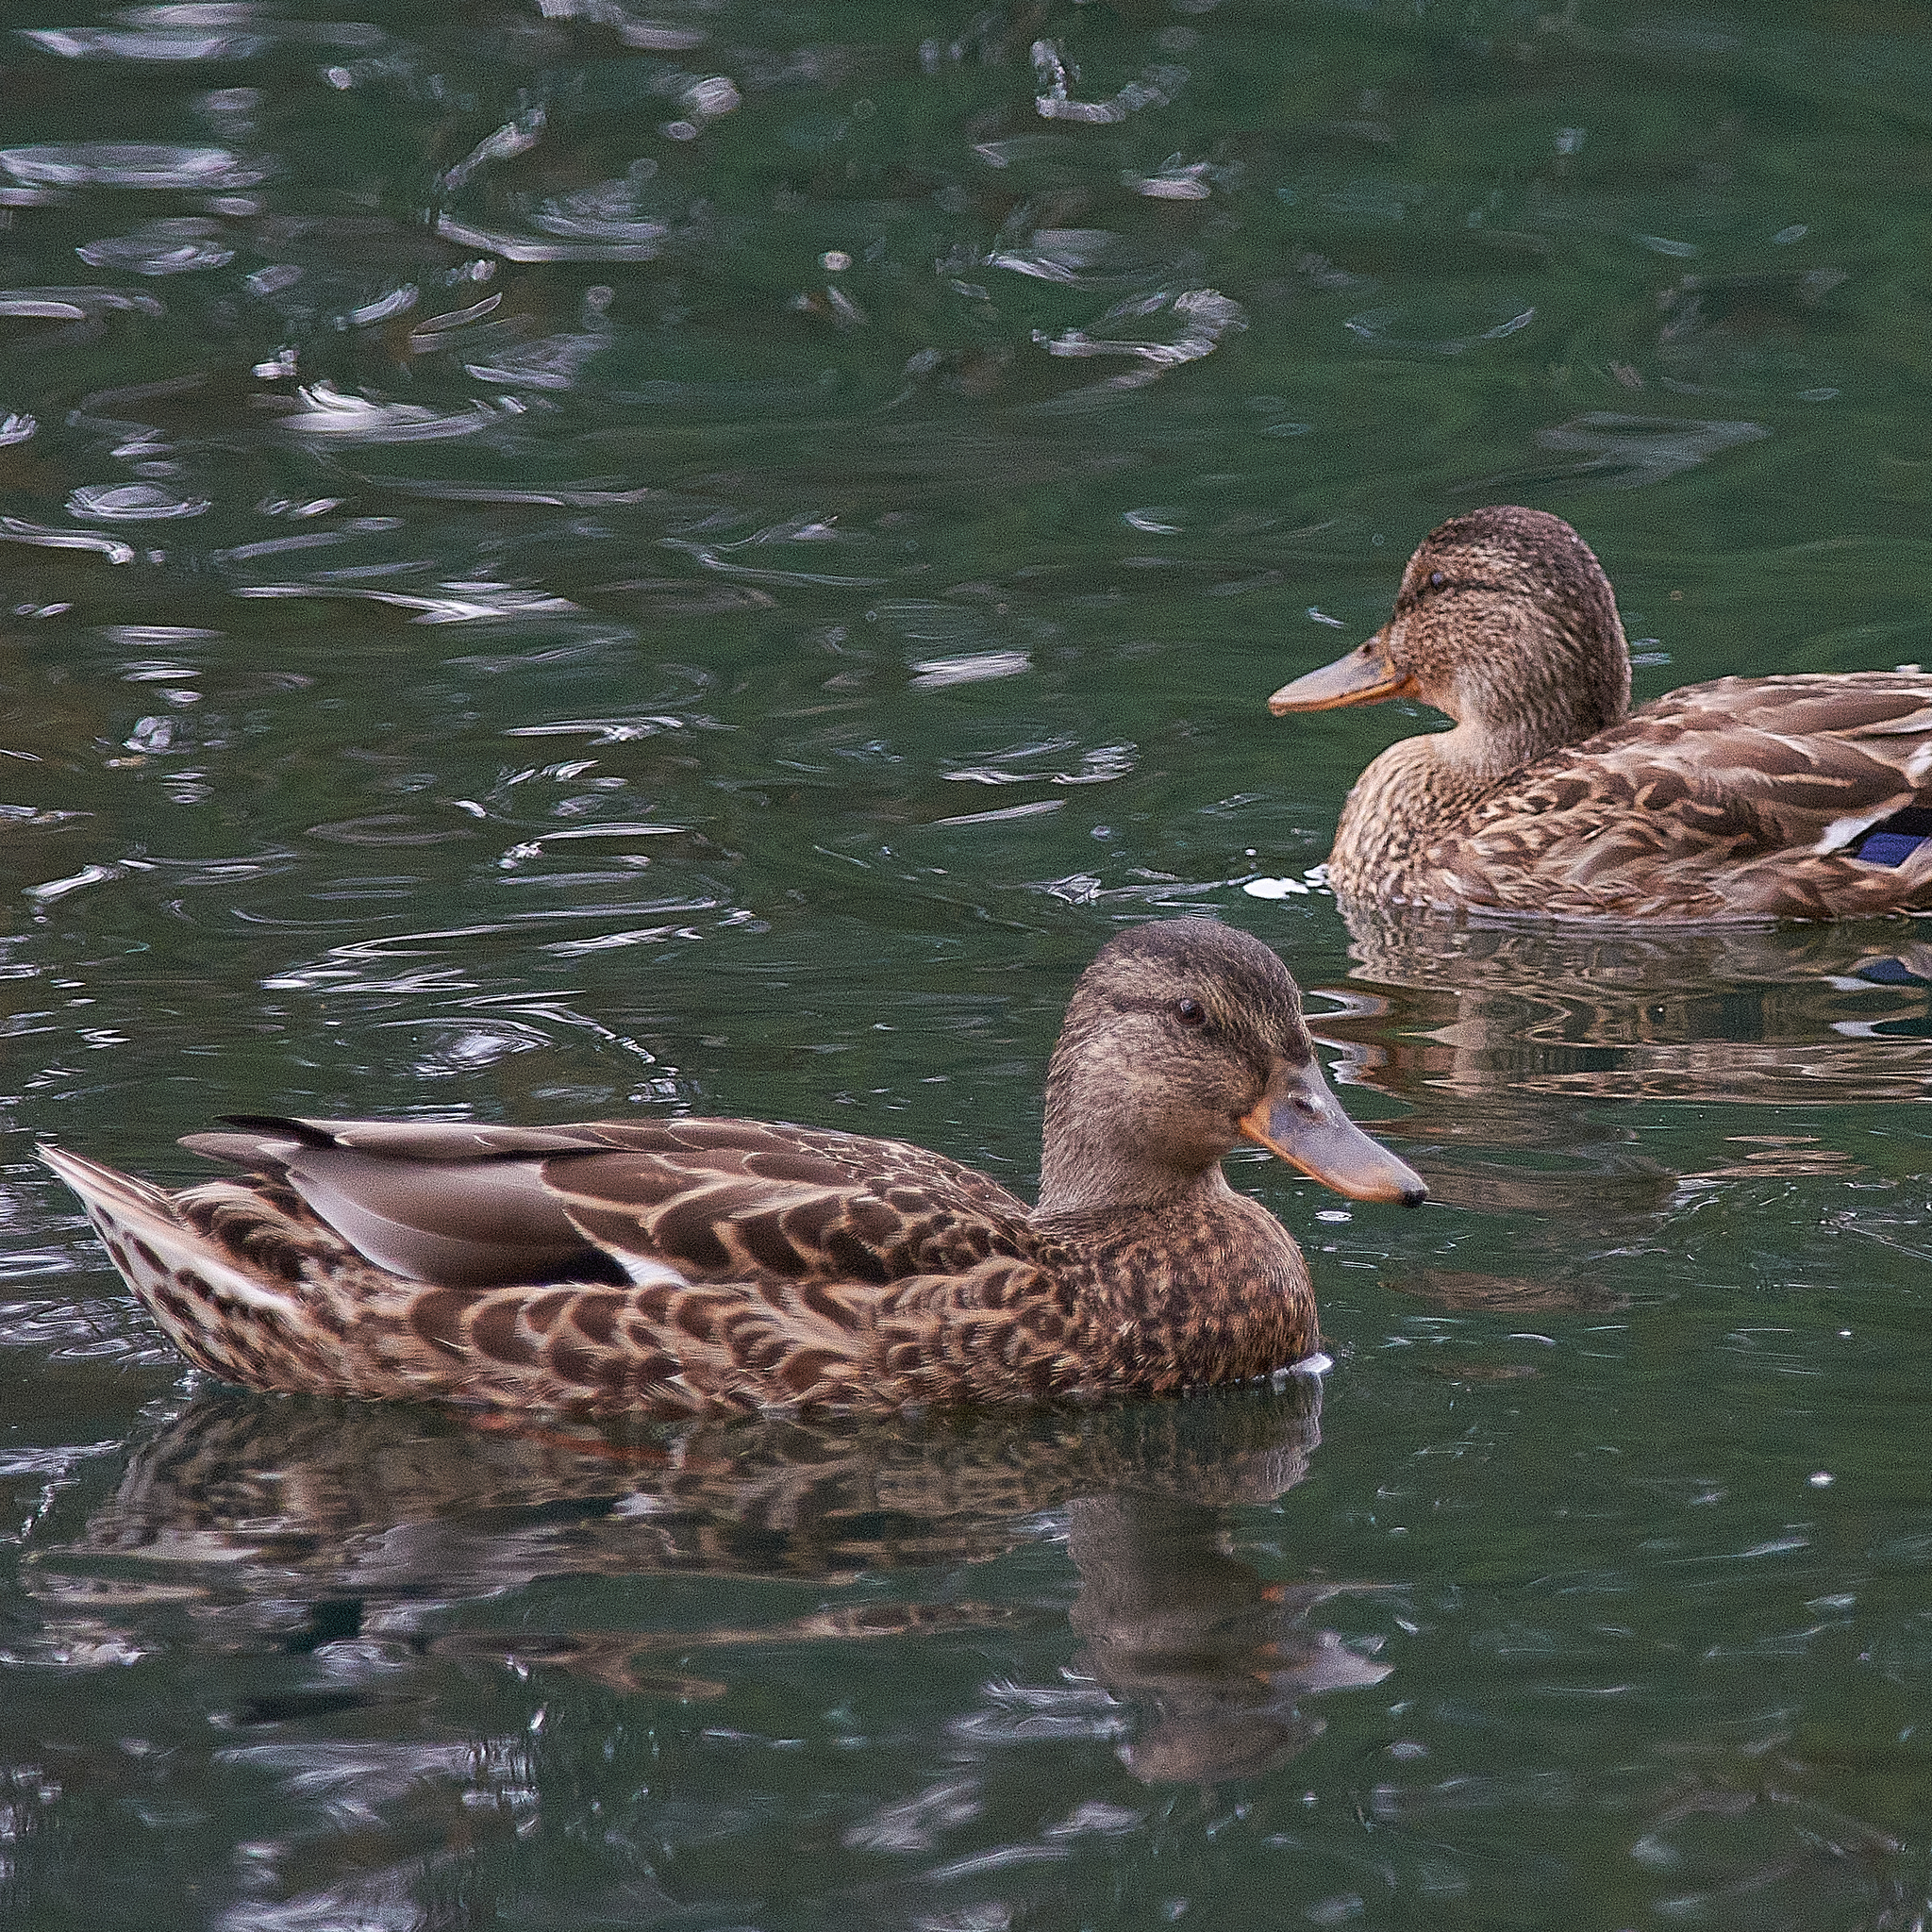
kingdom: Animalia
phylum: Chordata
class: Aves
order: Anseriformes
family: Anatidae
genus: Anas
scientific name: Anas platyrhynchos
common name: Mallard
